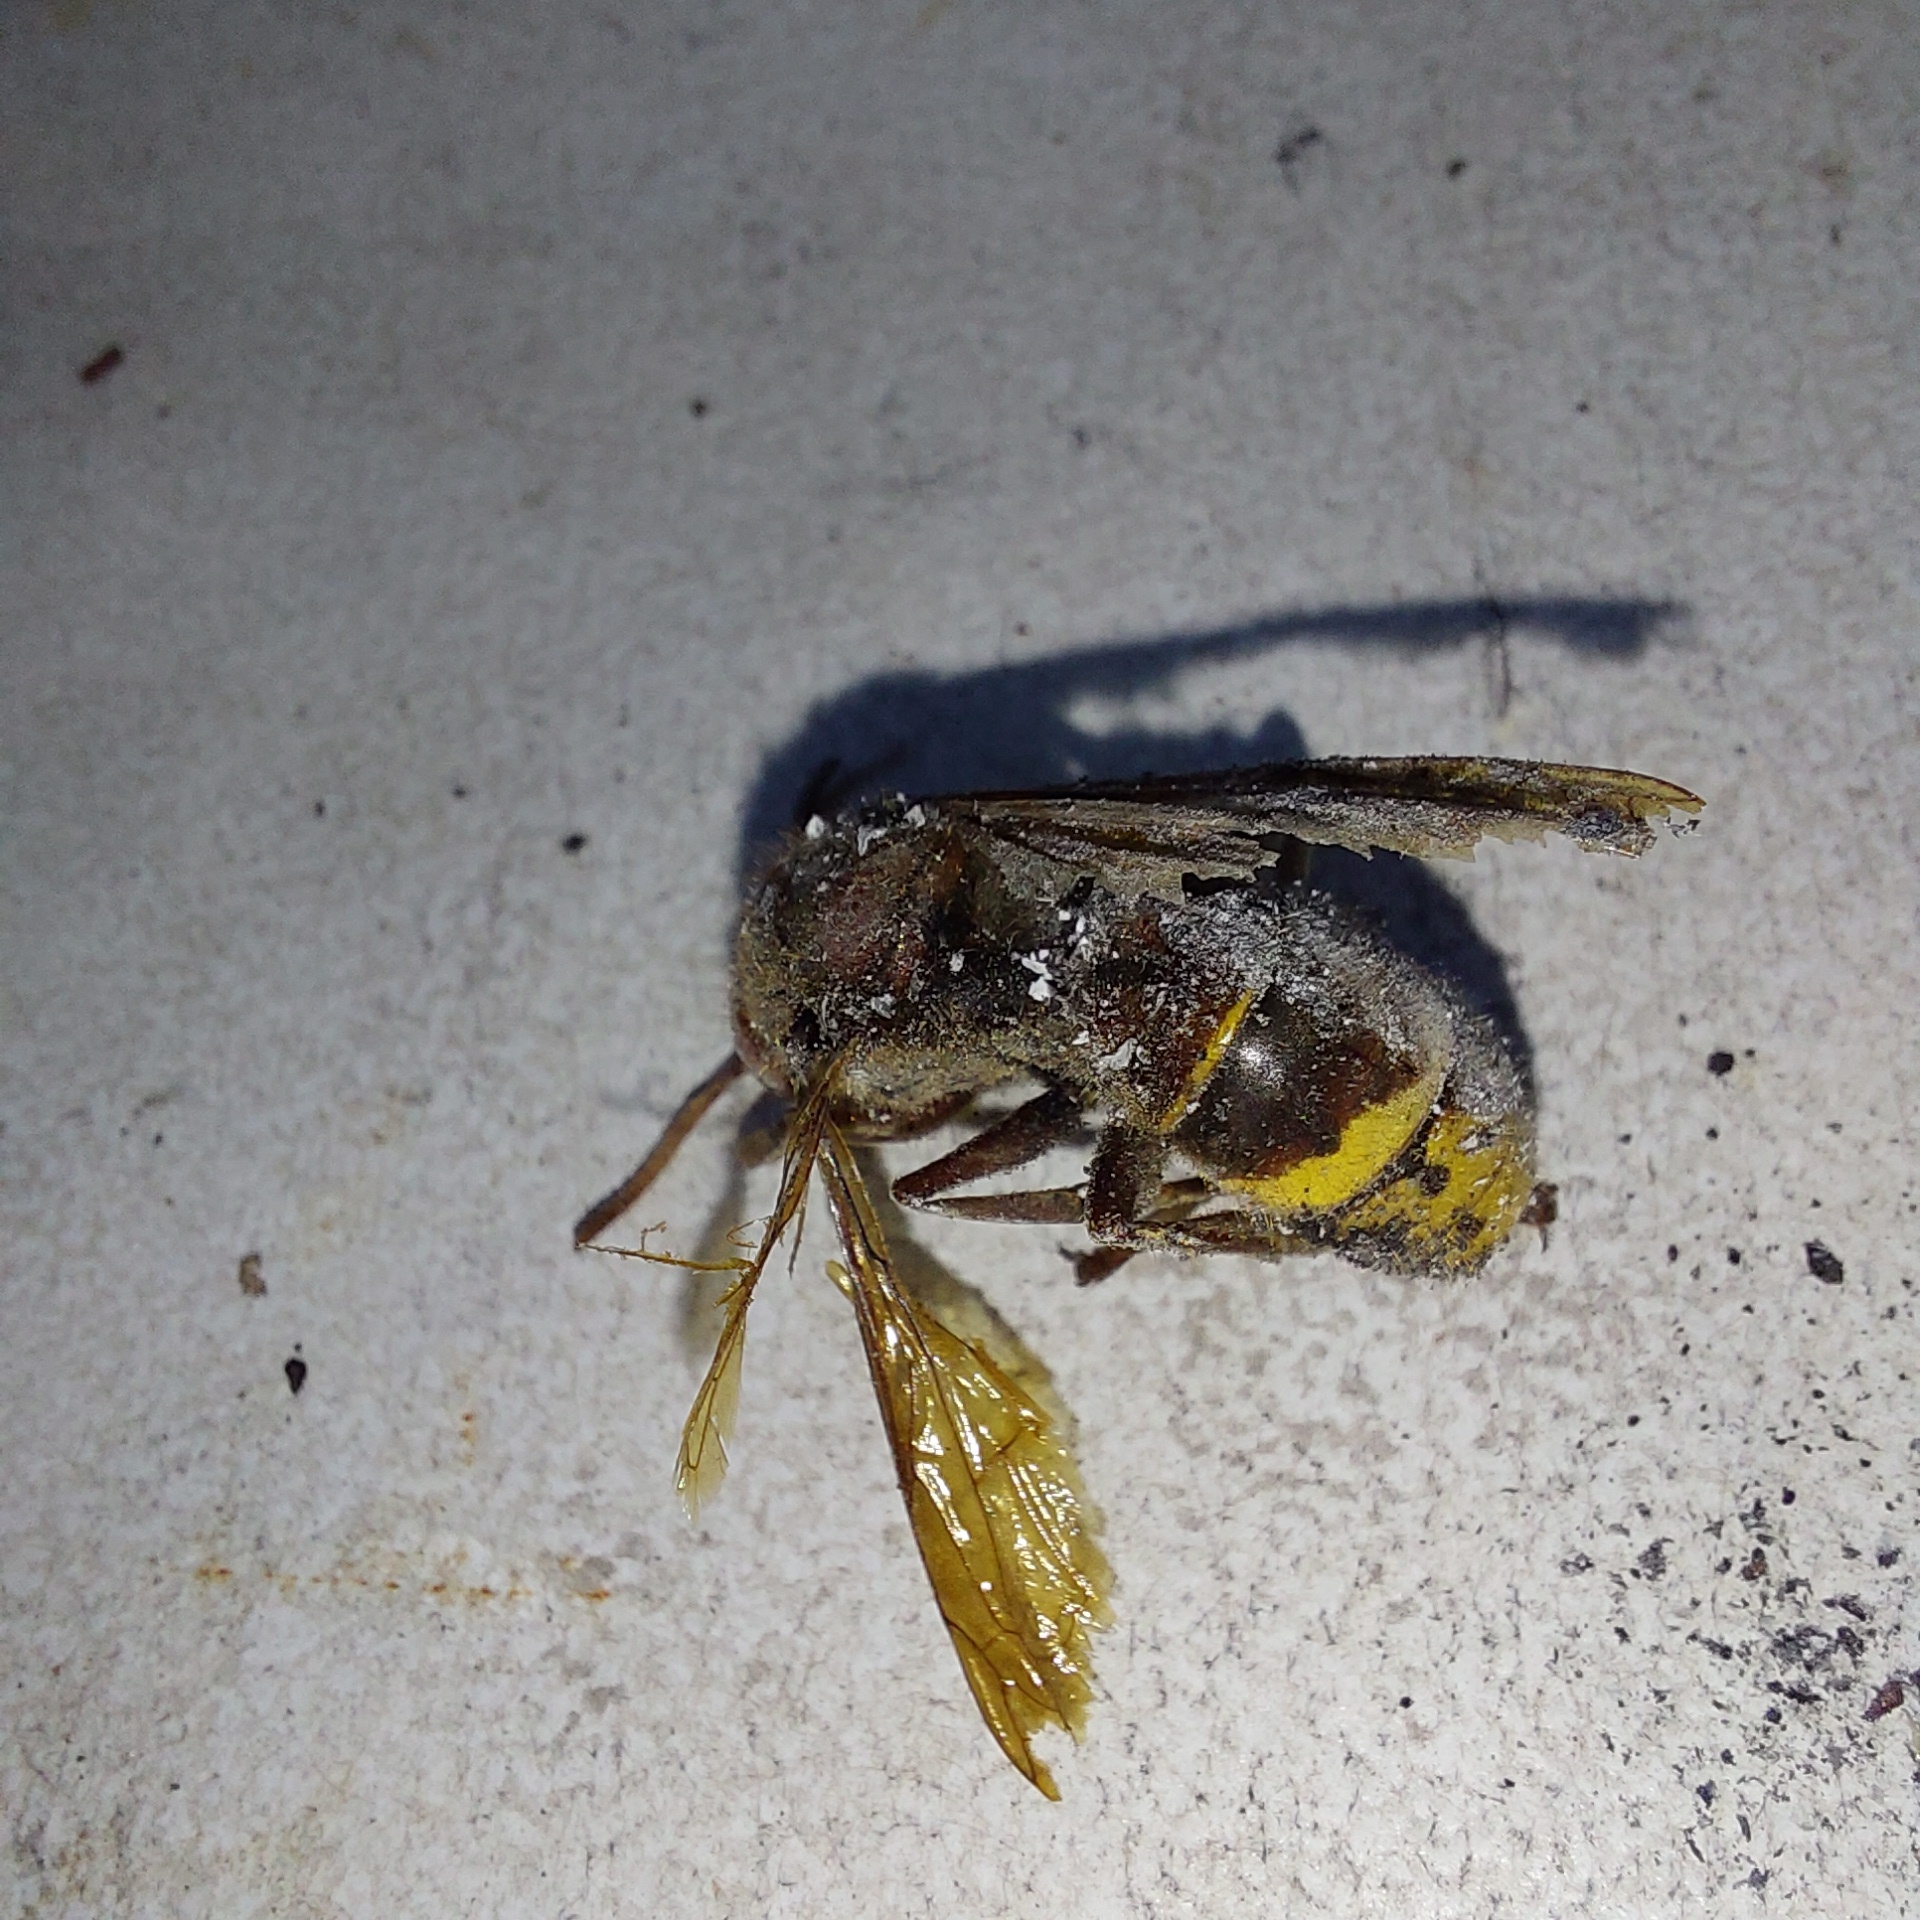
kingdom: Animalia
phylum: Arthropoda
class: Insecta
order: Hymenoptera
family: Vespidae
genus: Vespa
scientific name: Vespa crabro
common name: Hornet
